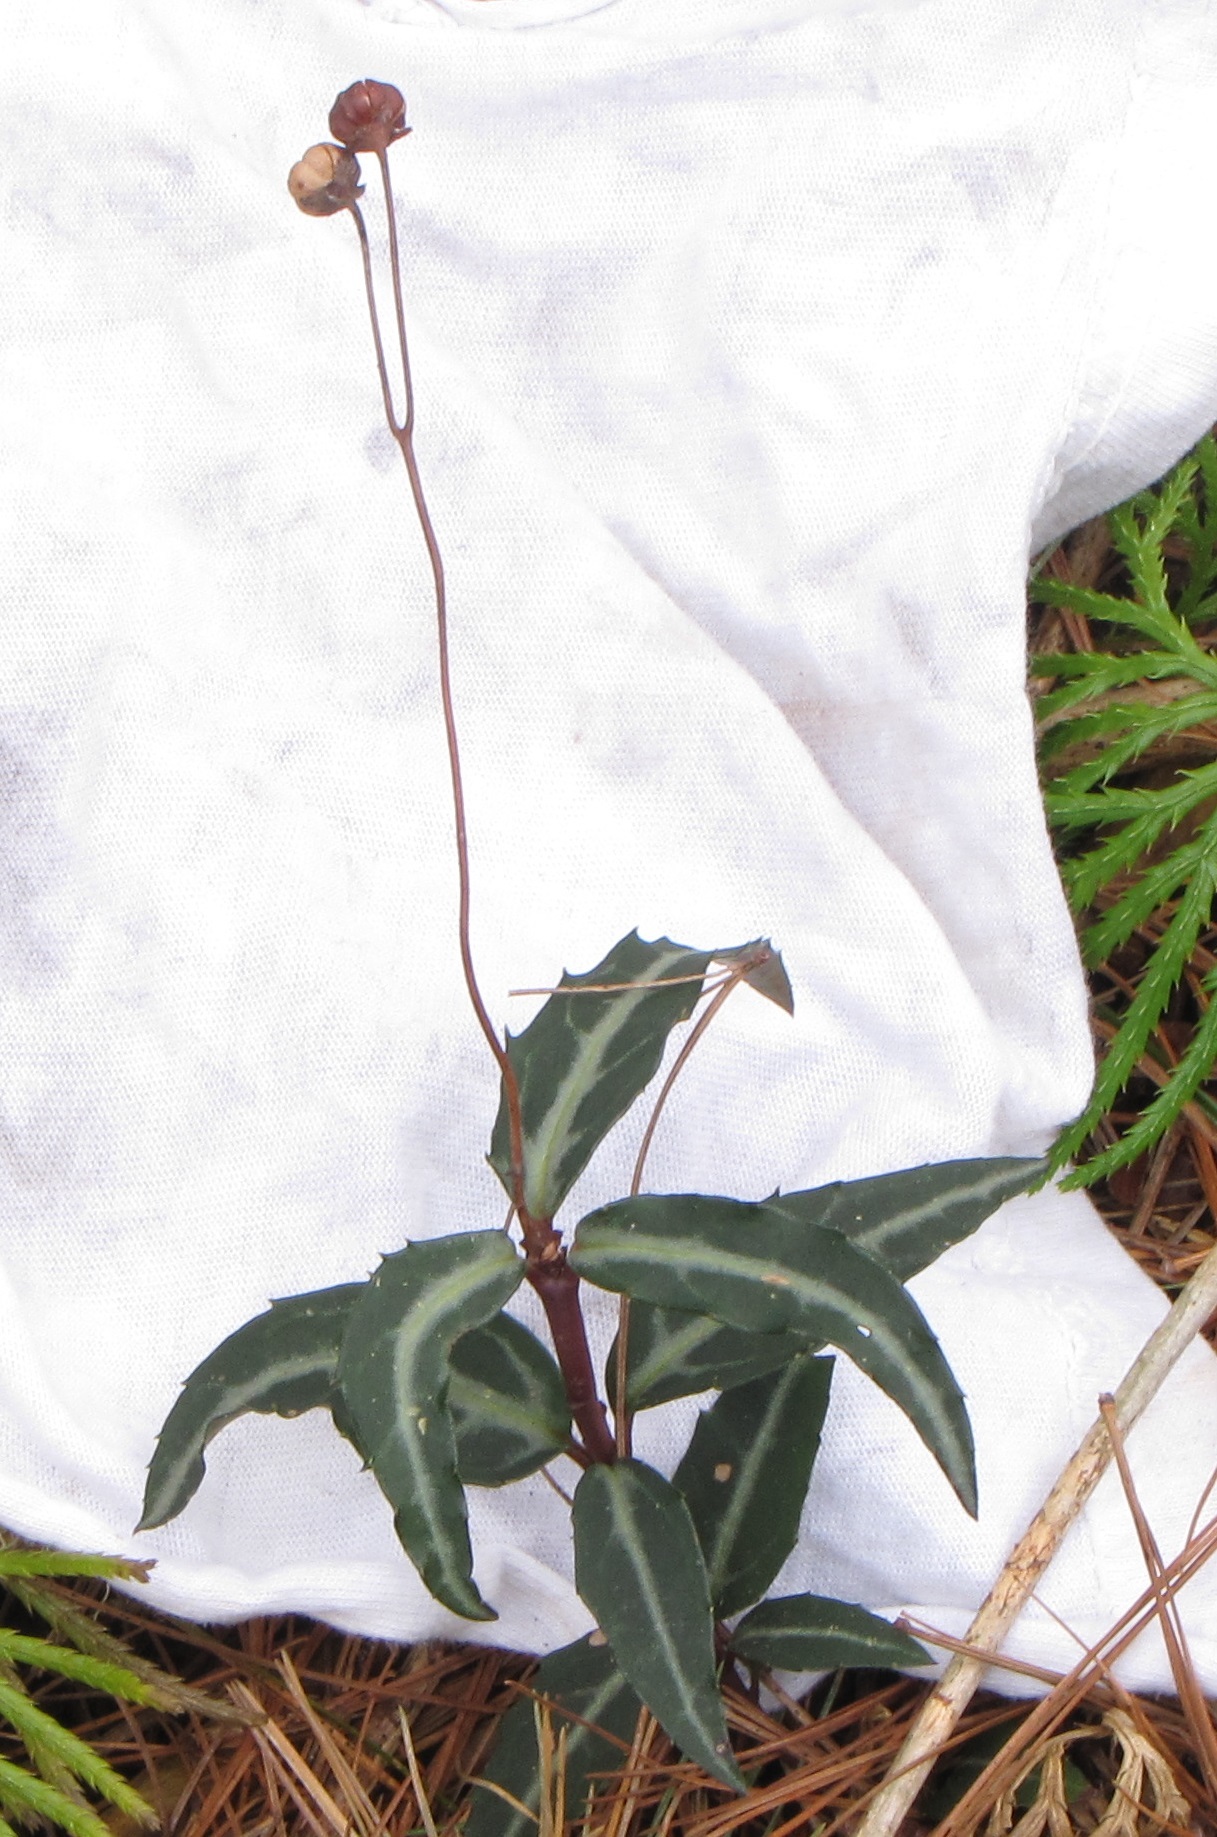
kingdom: Plantae
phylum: Tracheophyta
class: Magnoliopsida
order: Ericales
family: Ericaceae
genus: Chimaphila
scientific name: Chimaphila maculata
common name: Spotted pipsissewa
